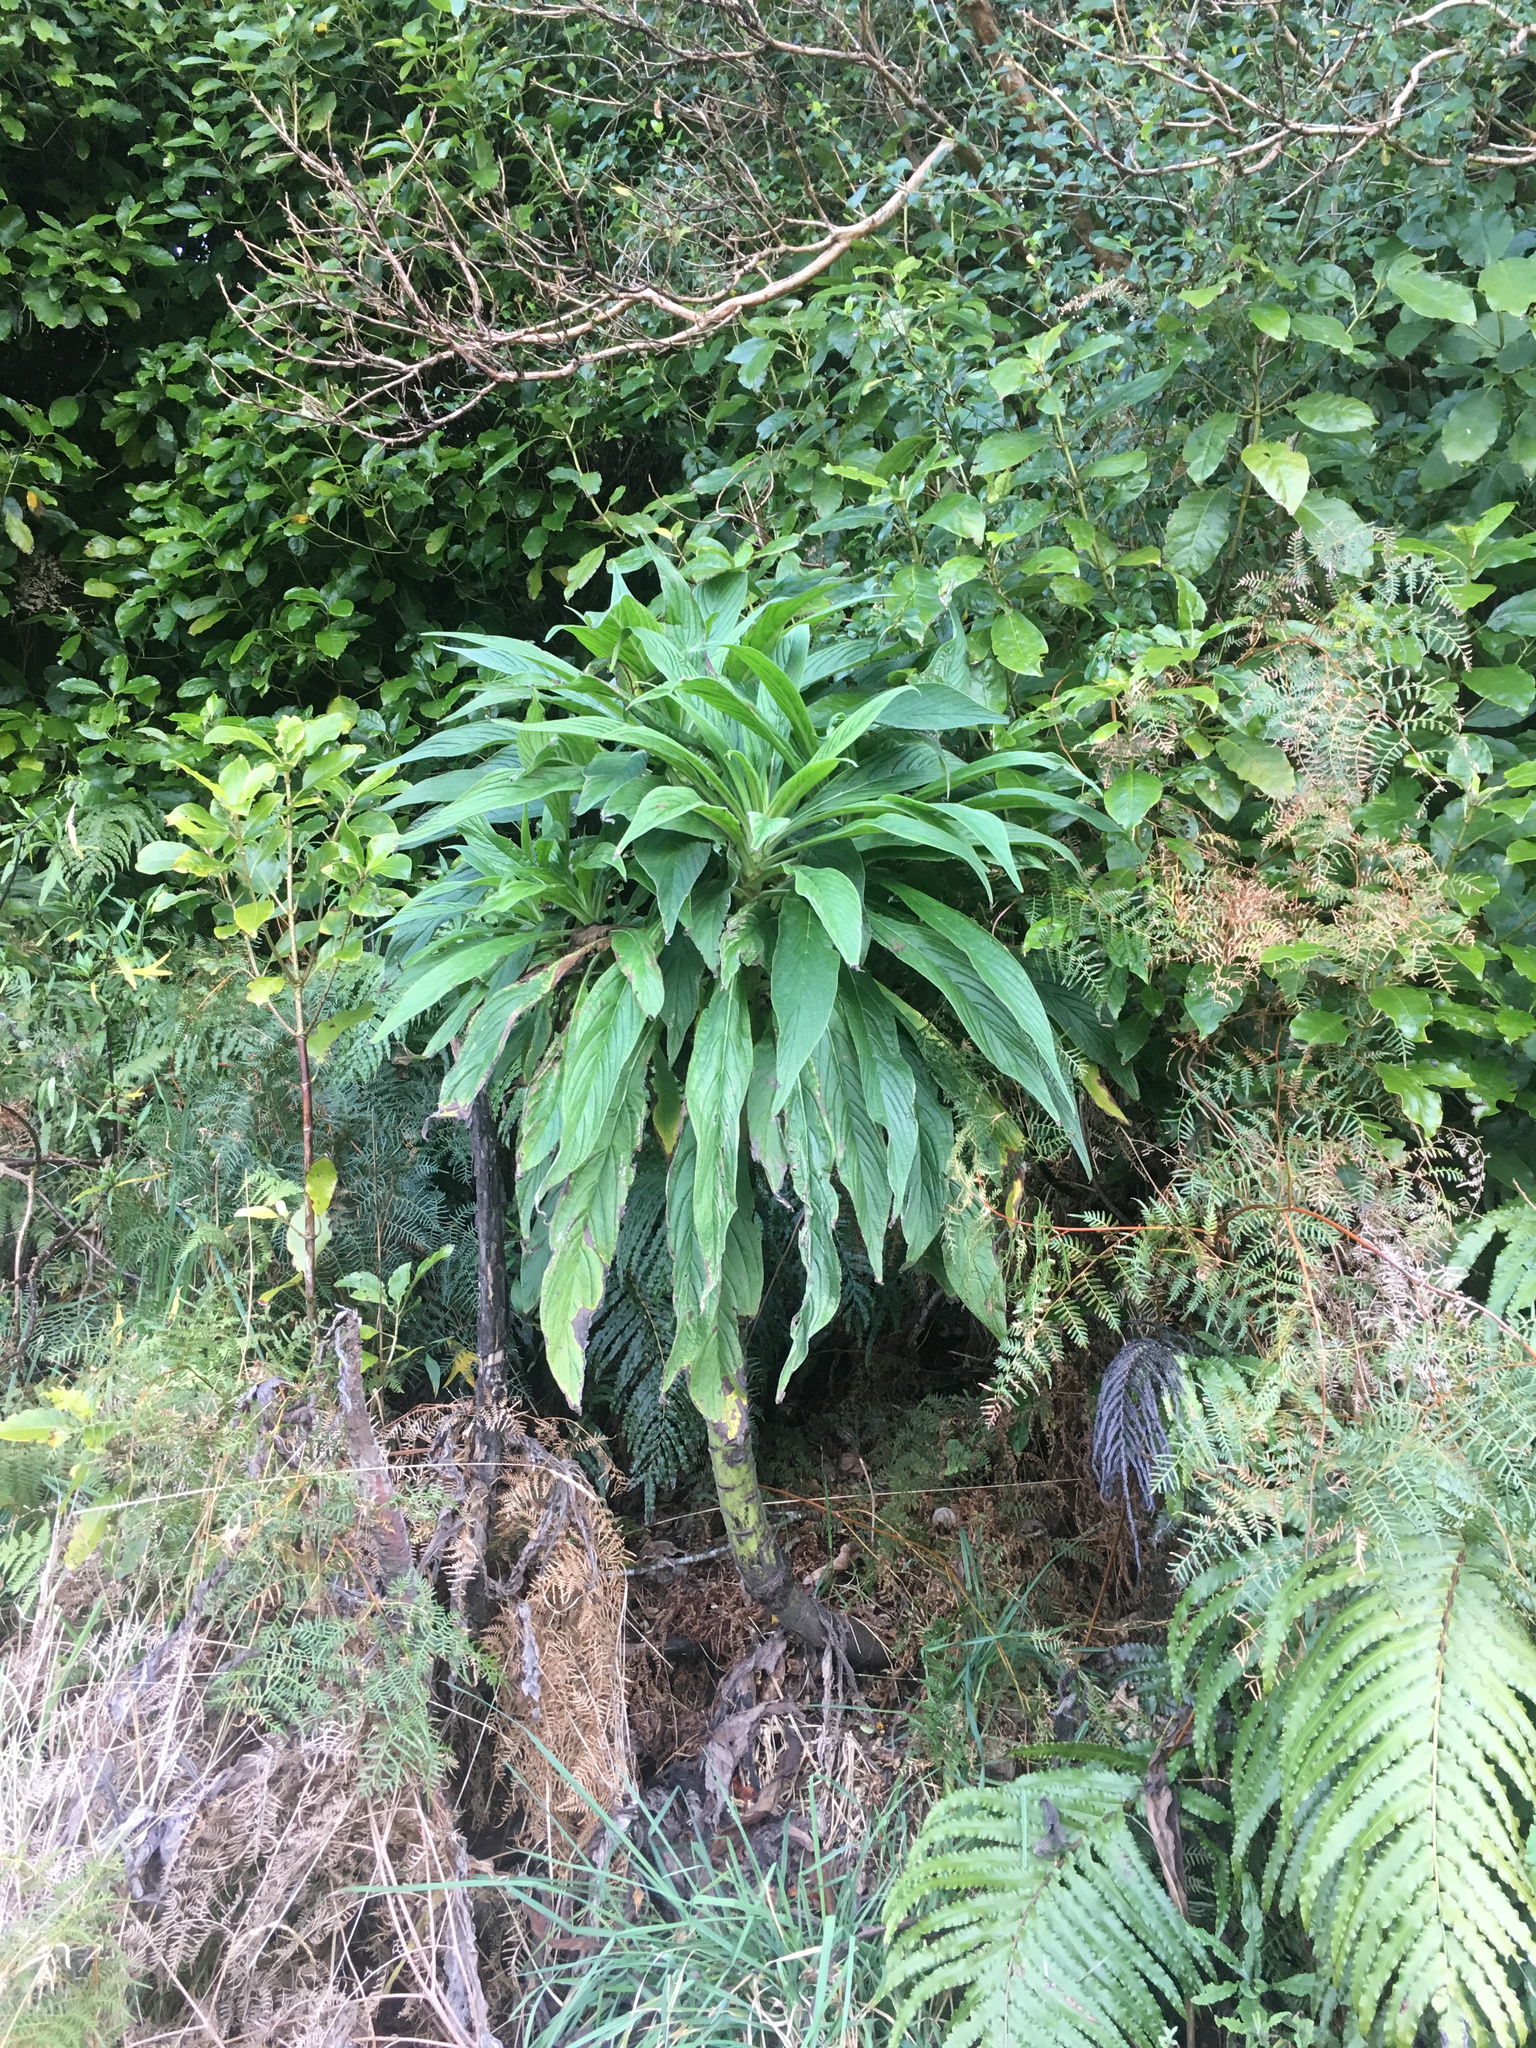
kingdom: Plantae
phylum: Tracheophyta
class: Magnoliopsida
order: Boraginales
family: Boraginaceae
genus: Echium
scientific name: Echium pininana
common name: Giant viper's-bugloss
